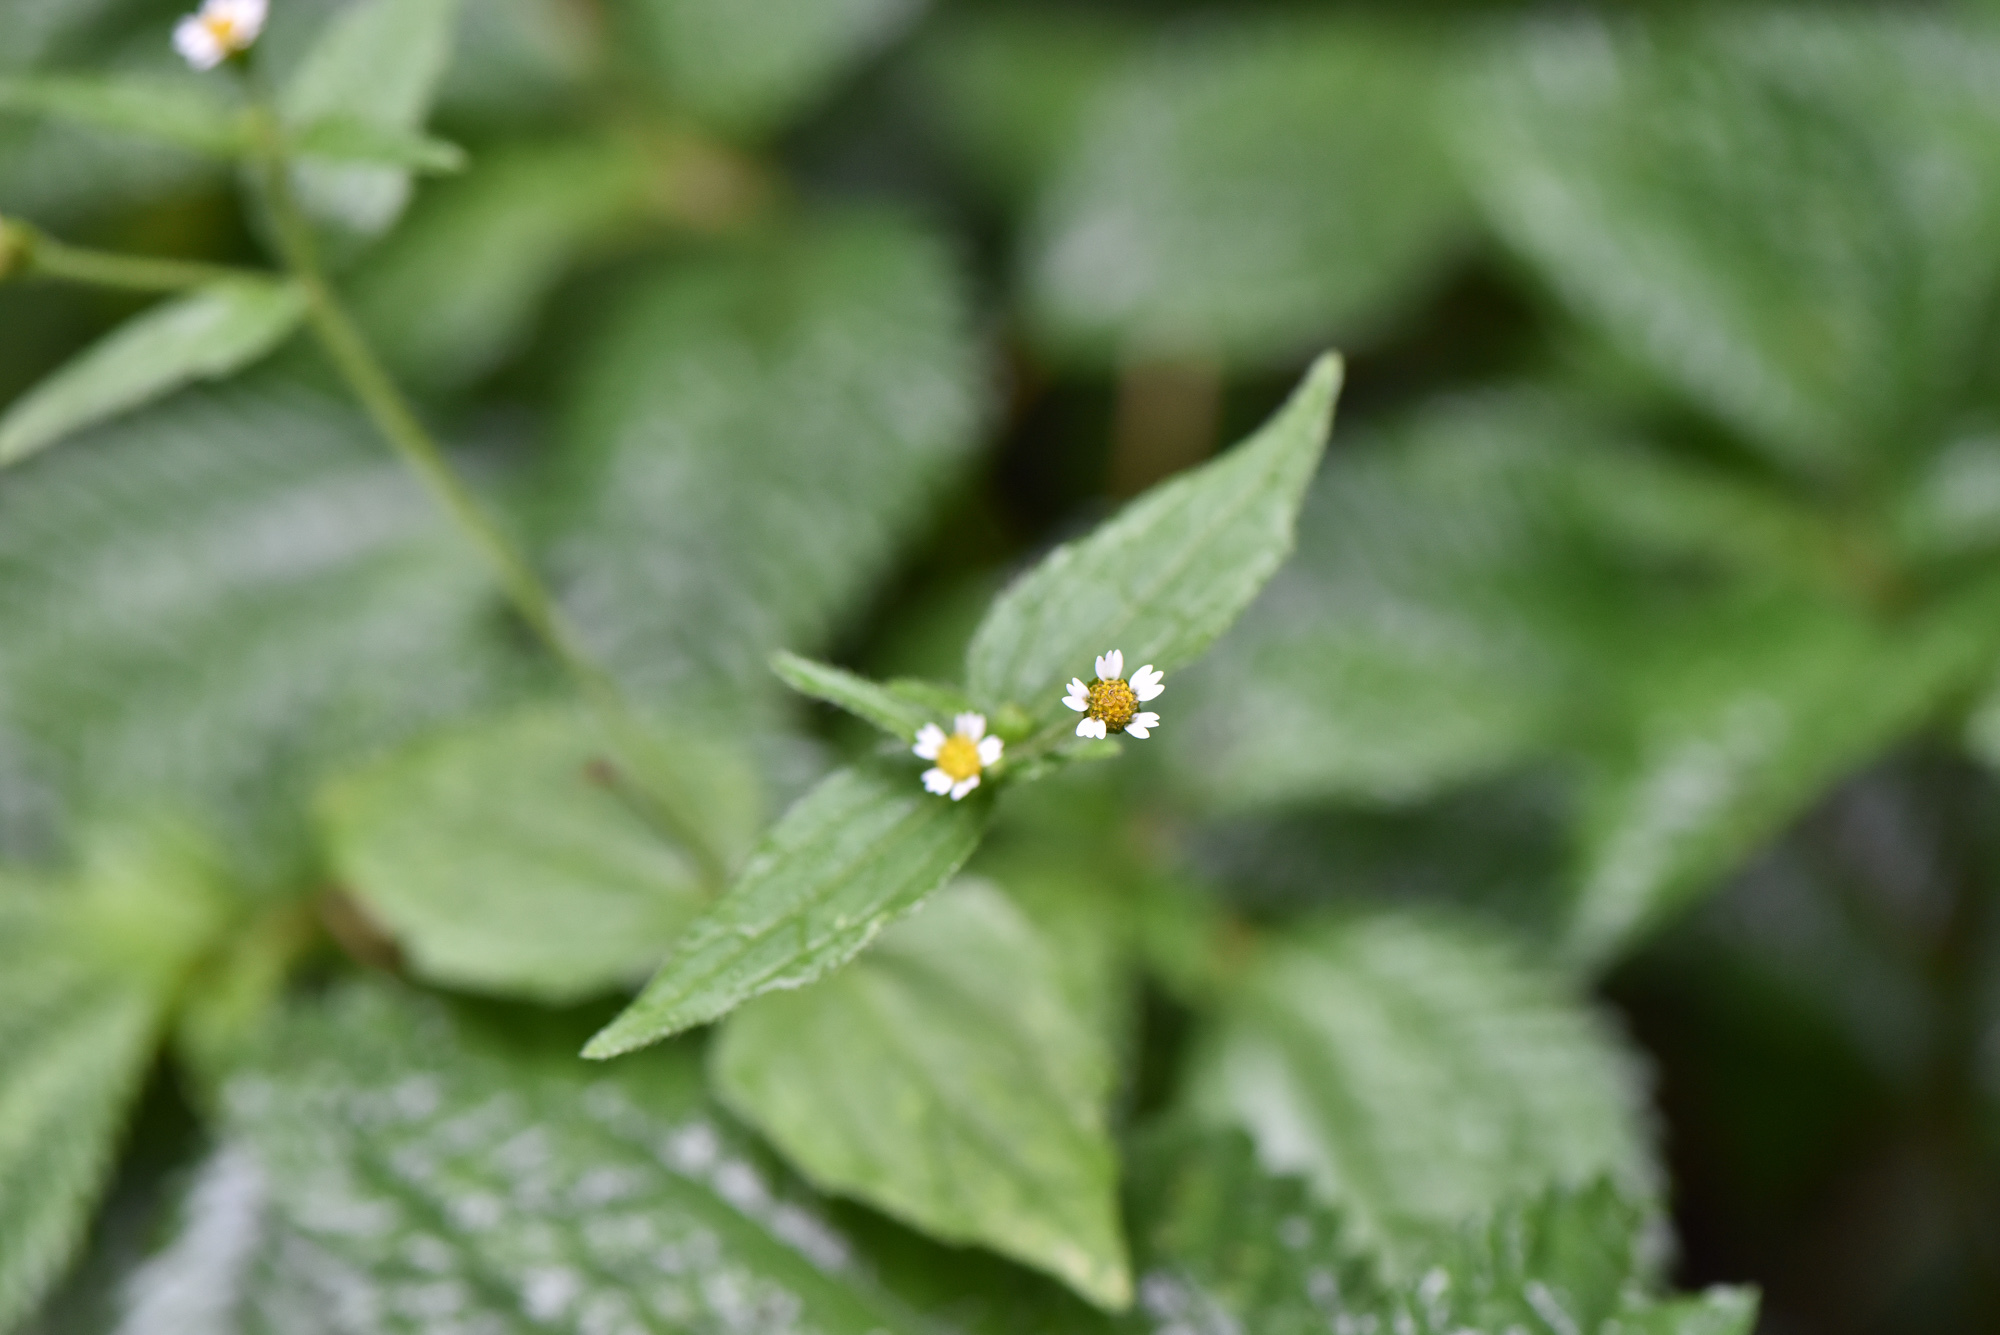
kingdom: Plantae
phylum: Tracheophyta
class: Magnoliopsida
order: Asterales
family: Asteraceae
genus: Galinsoga
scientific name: Galinsoga quadriradiata
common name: Shaggy soldier
